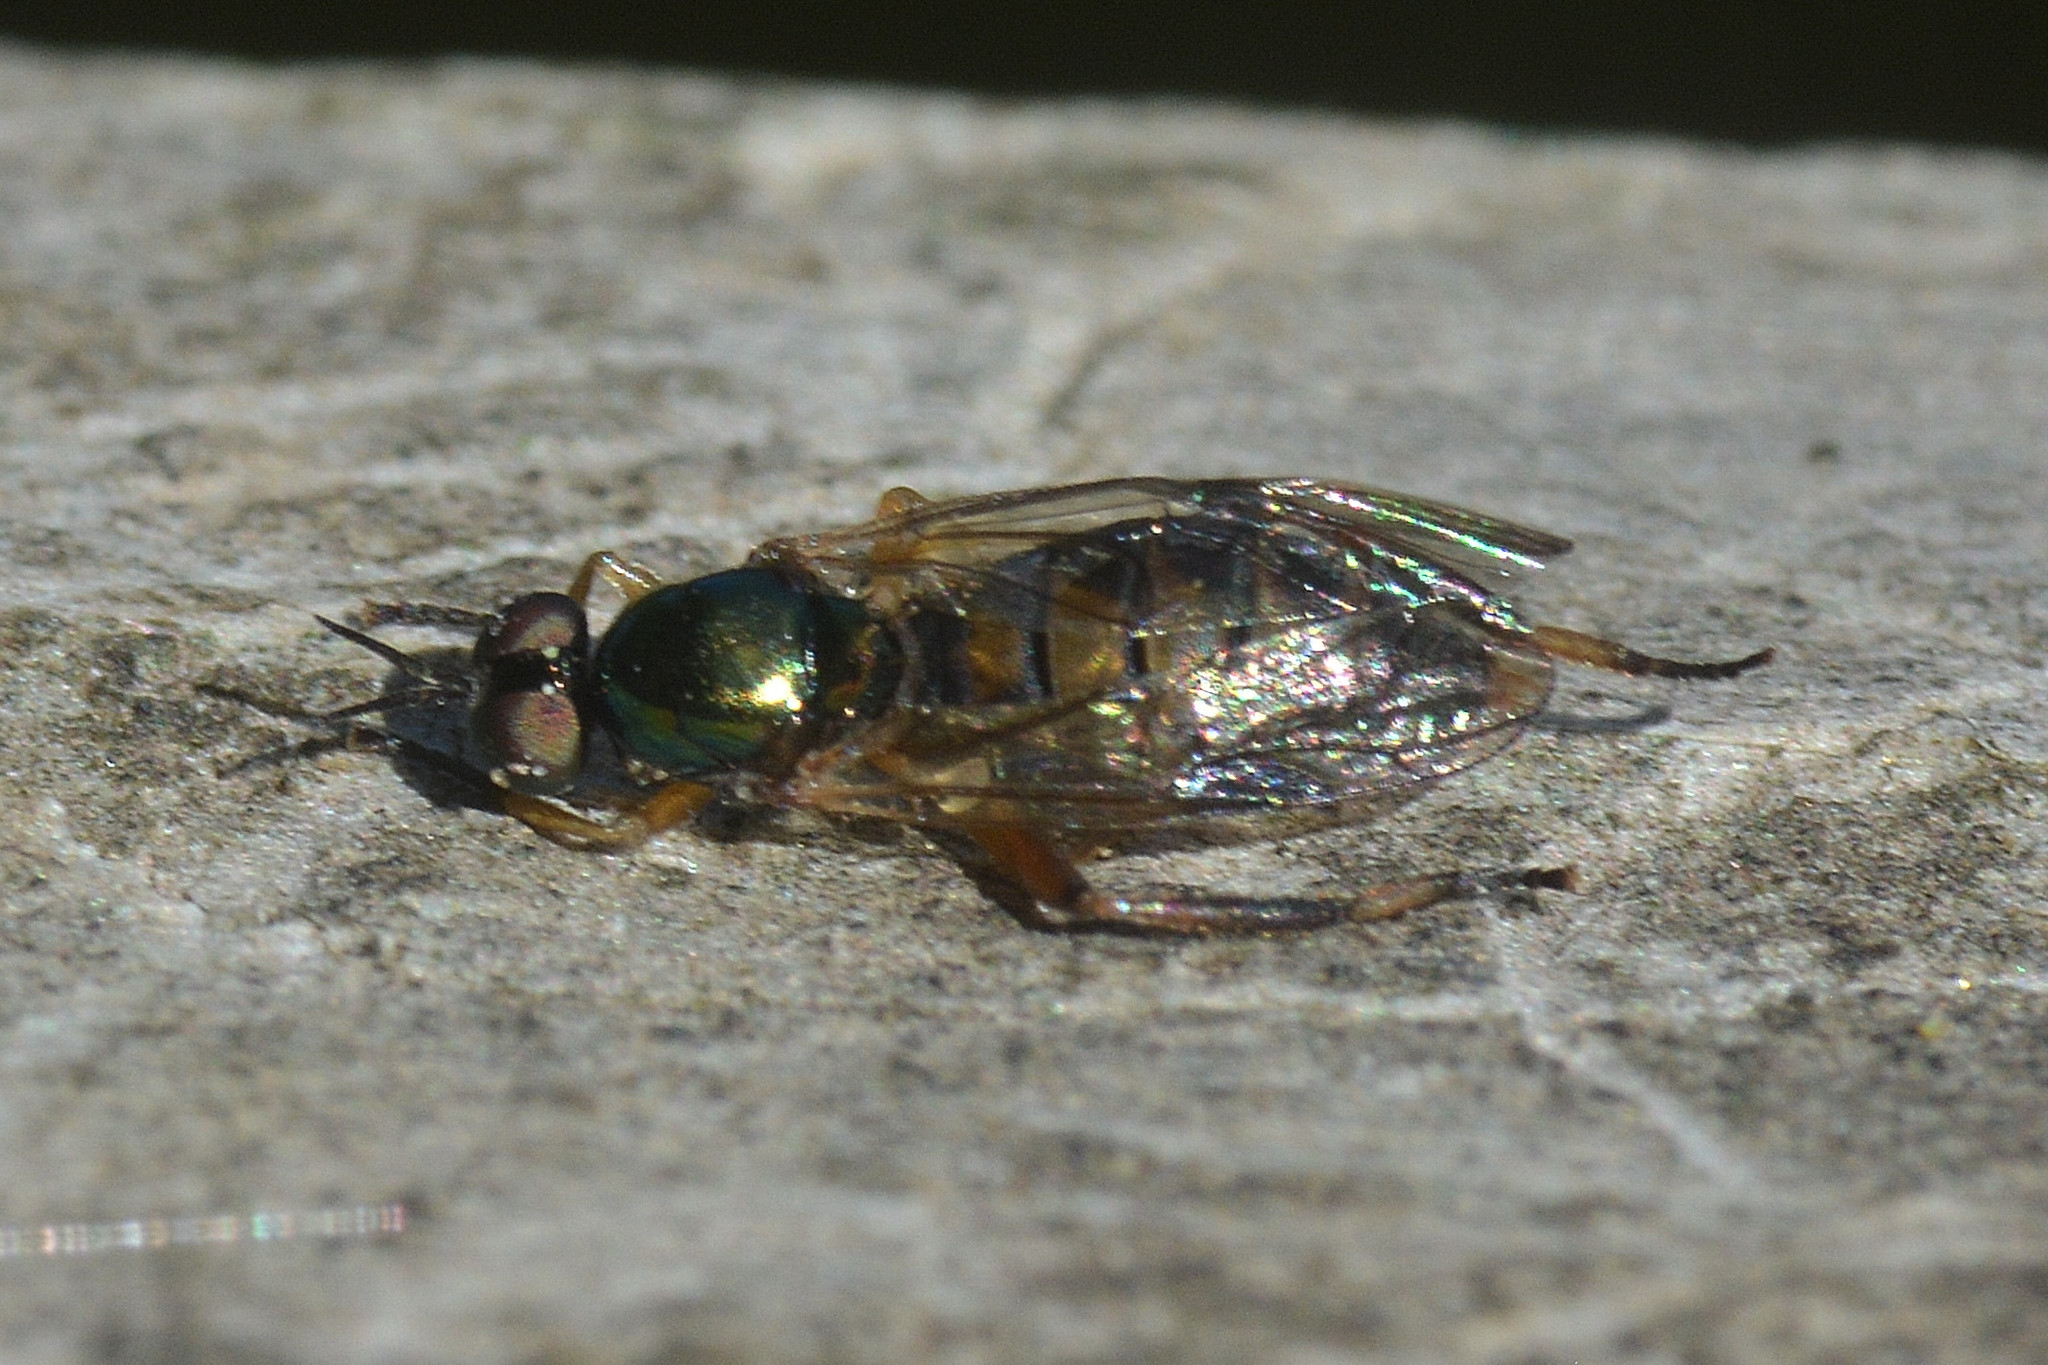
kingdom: Animalia
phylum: Arthropoda
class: Insecta
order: Diptera
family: Stratiomyidae
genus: Chorisops
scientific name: Chorisops tibialis
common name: Dull four-spined legionnaire
